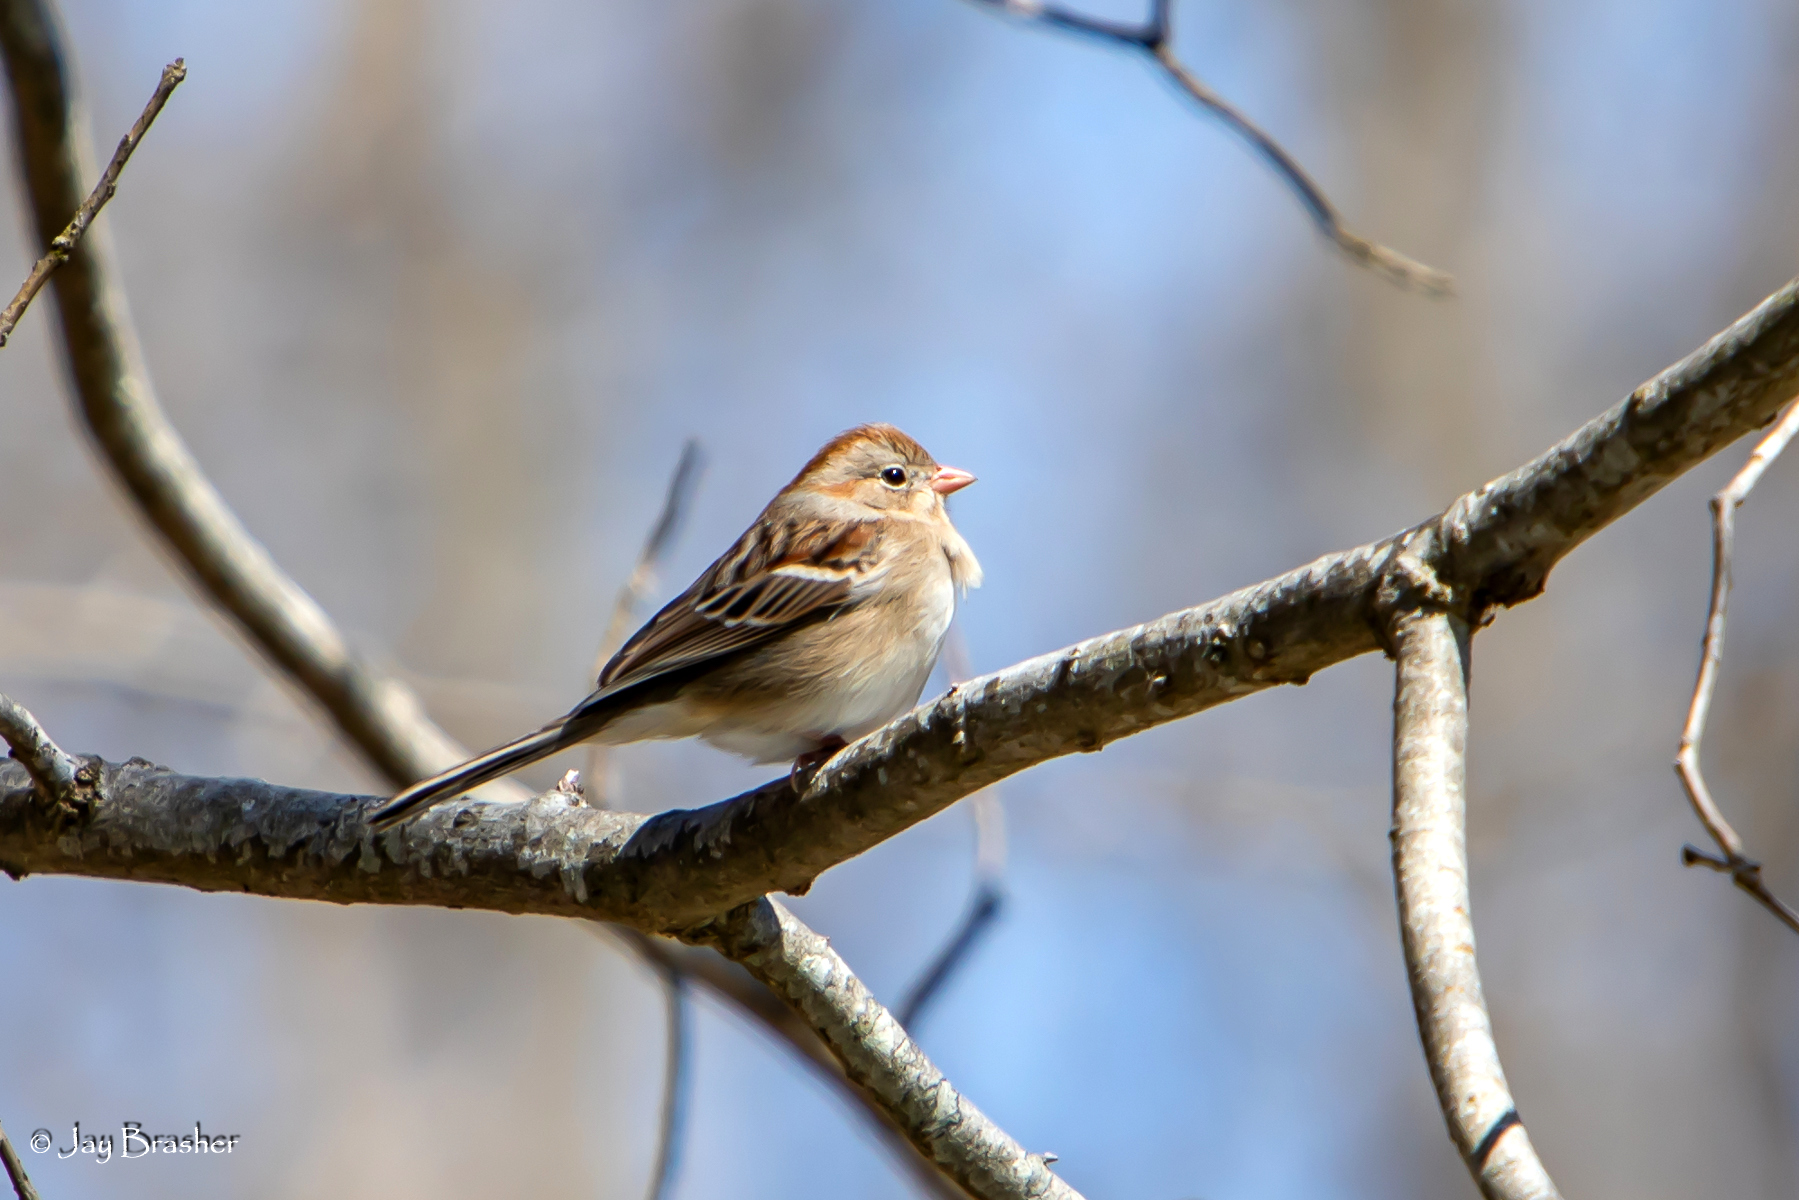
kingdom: Animalia
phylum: Chordata
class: Aves
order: Passeriformes
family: Passerellidae
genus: Spizella
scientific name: Spizella pusilla
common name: Field sparrow
